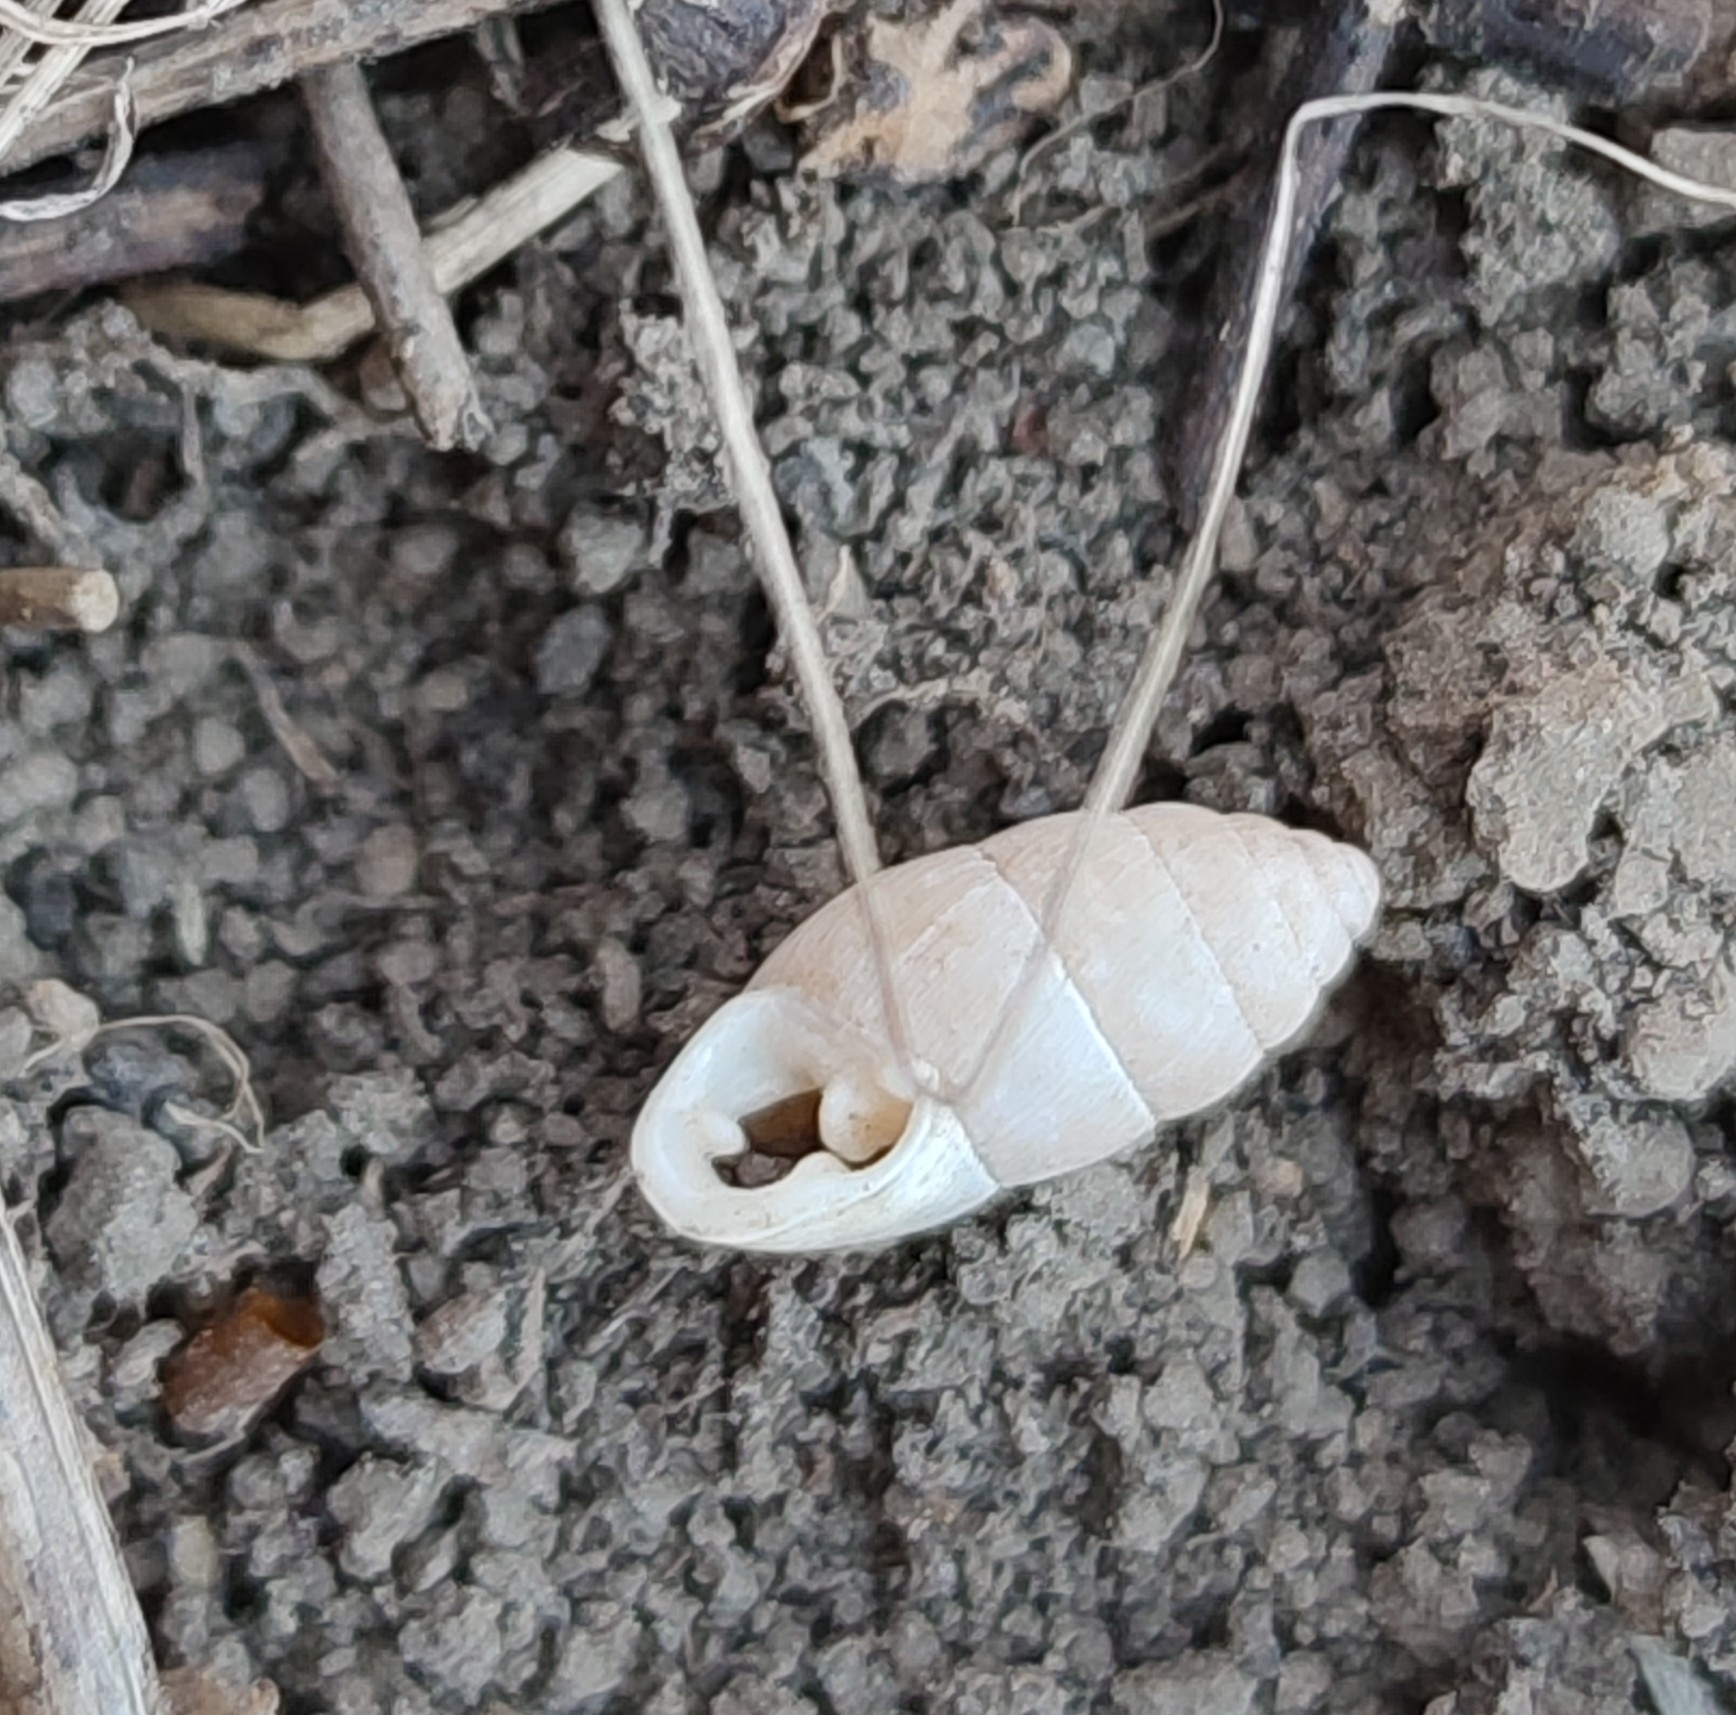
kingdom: Animalia
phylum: Mollusca
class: Gastropoda
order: Stylommatophora
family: Enidae
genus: Chondrula
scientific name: Chondrula tridens
